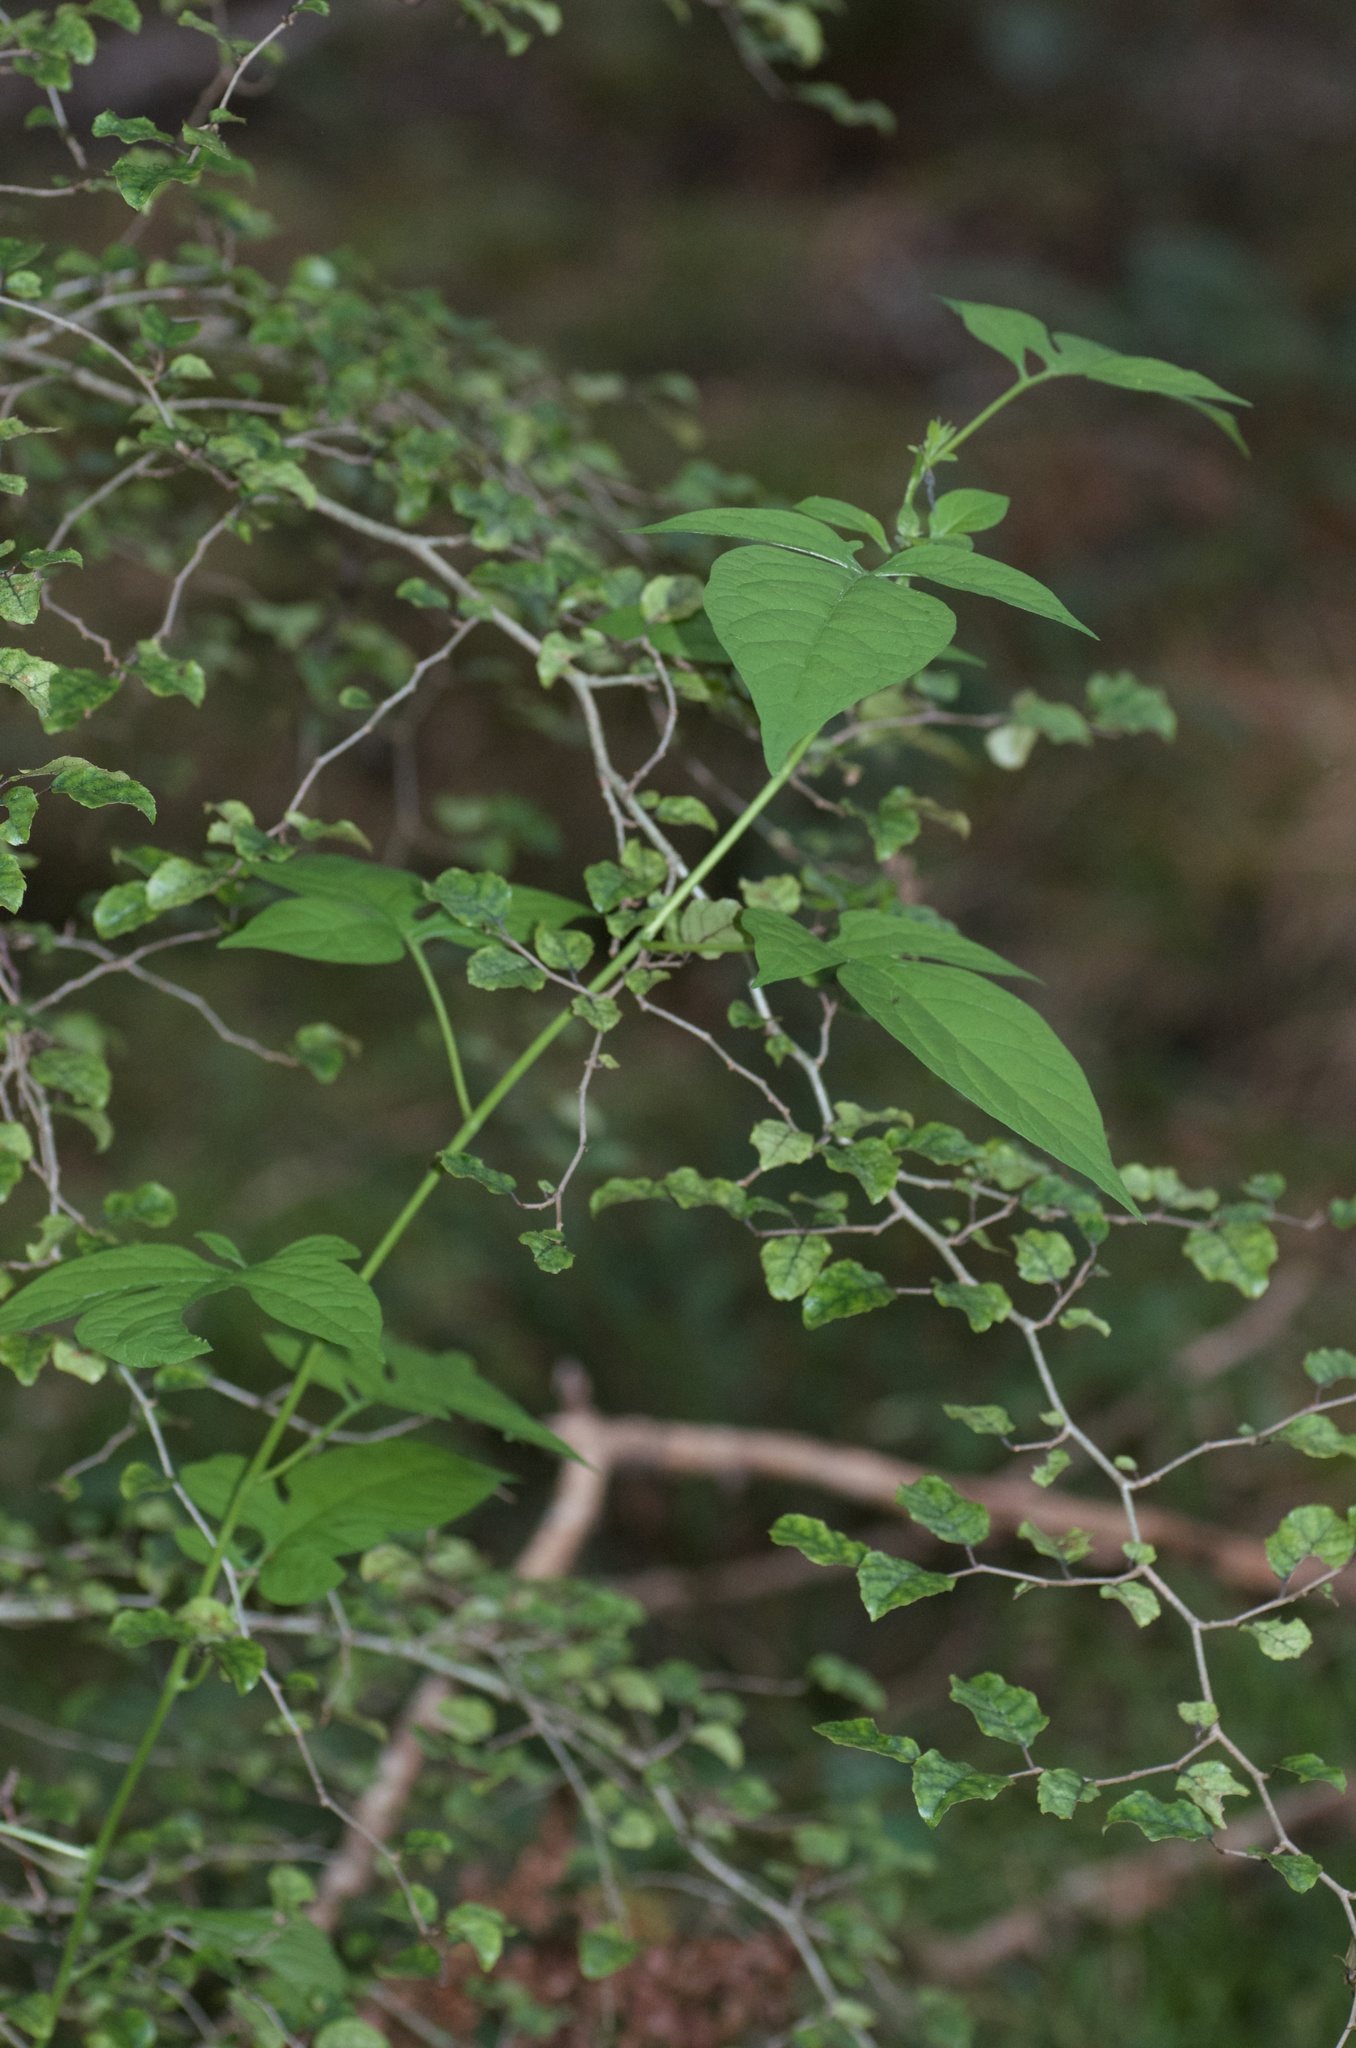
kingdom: Plantae
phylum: Tracheophyta
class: Magnoliopsida
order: Solanales
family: Solanaceae
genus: Solanum
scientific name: Solanum dulcamara
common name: Climbing nightshade
